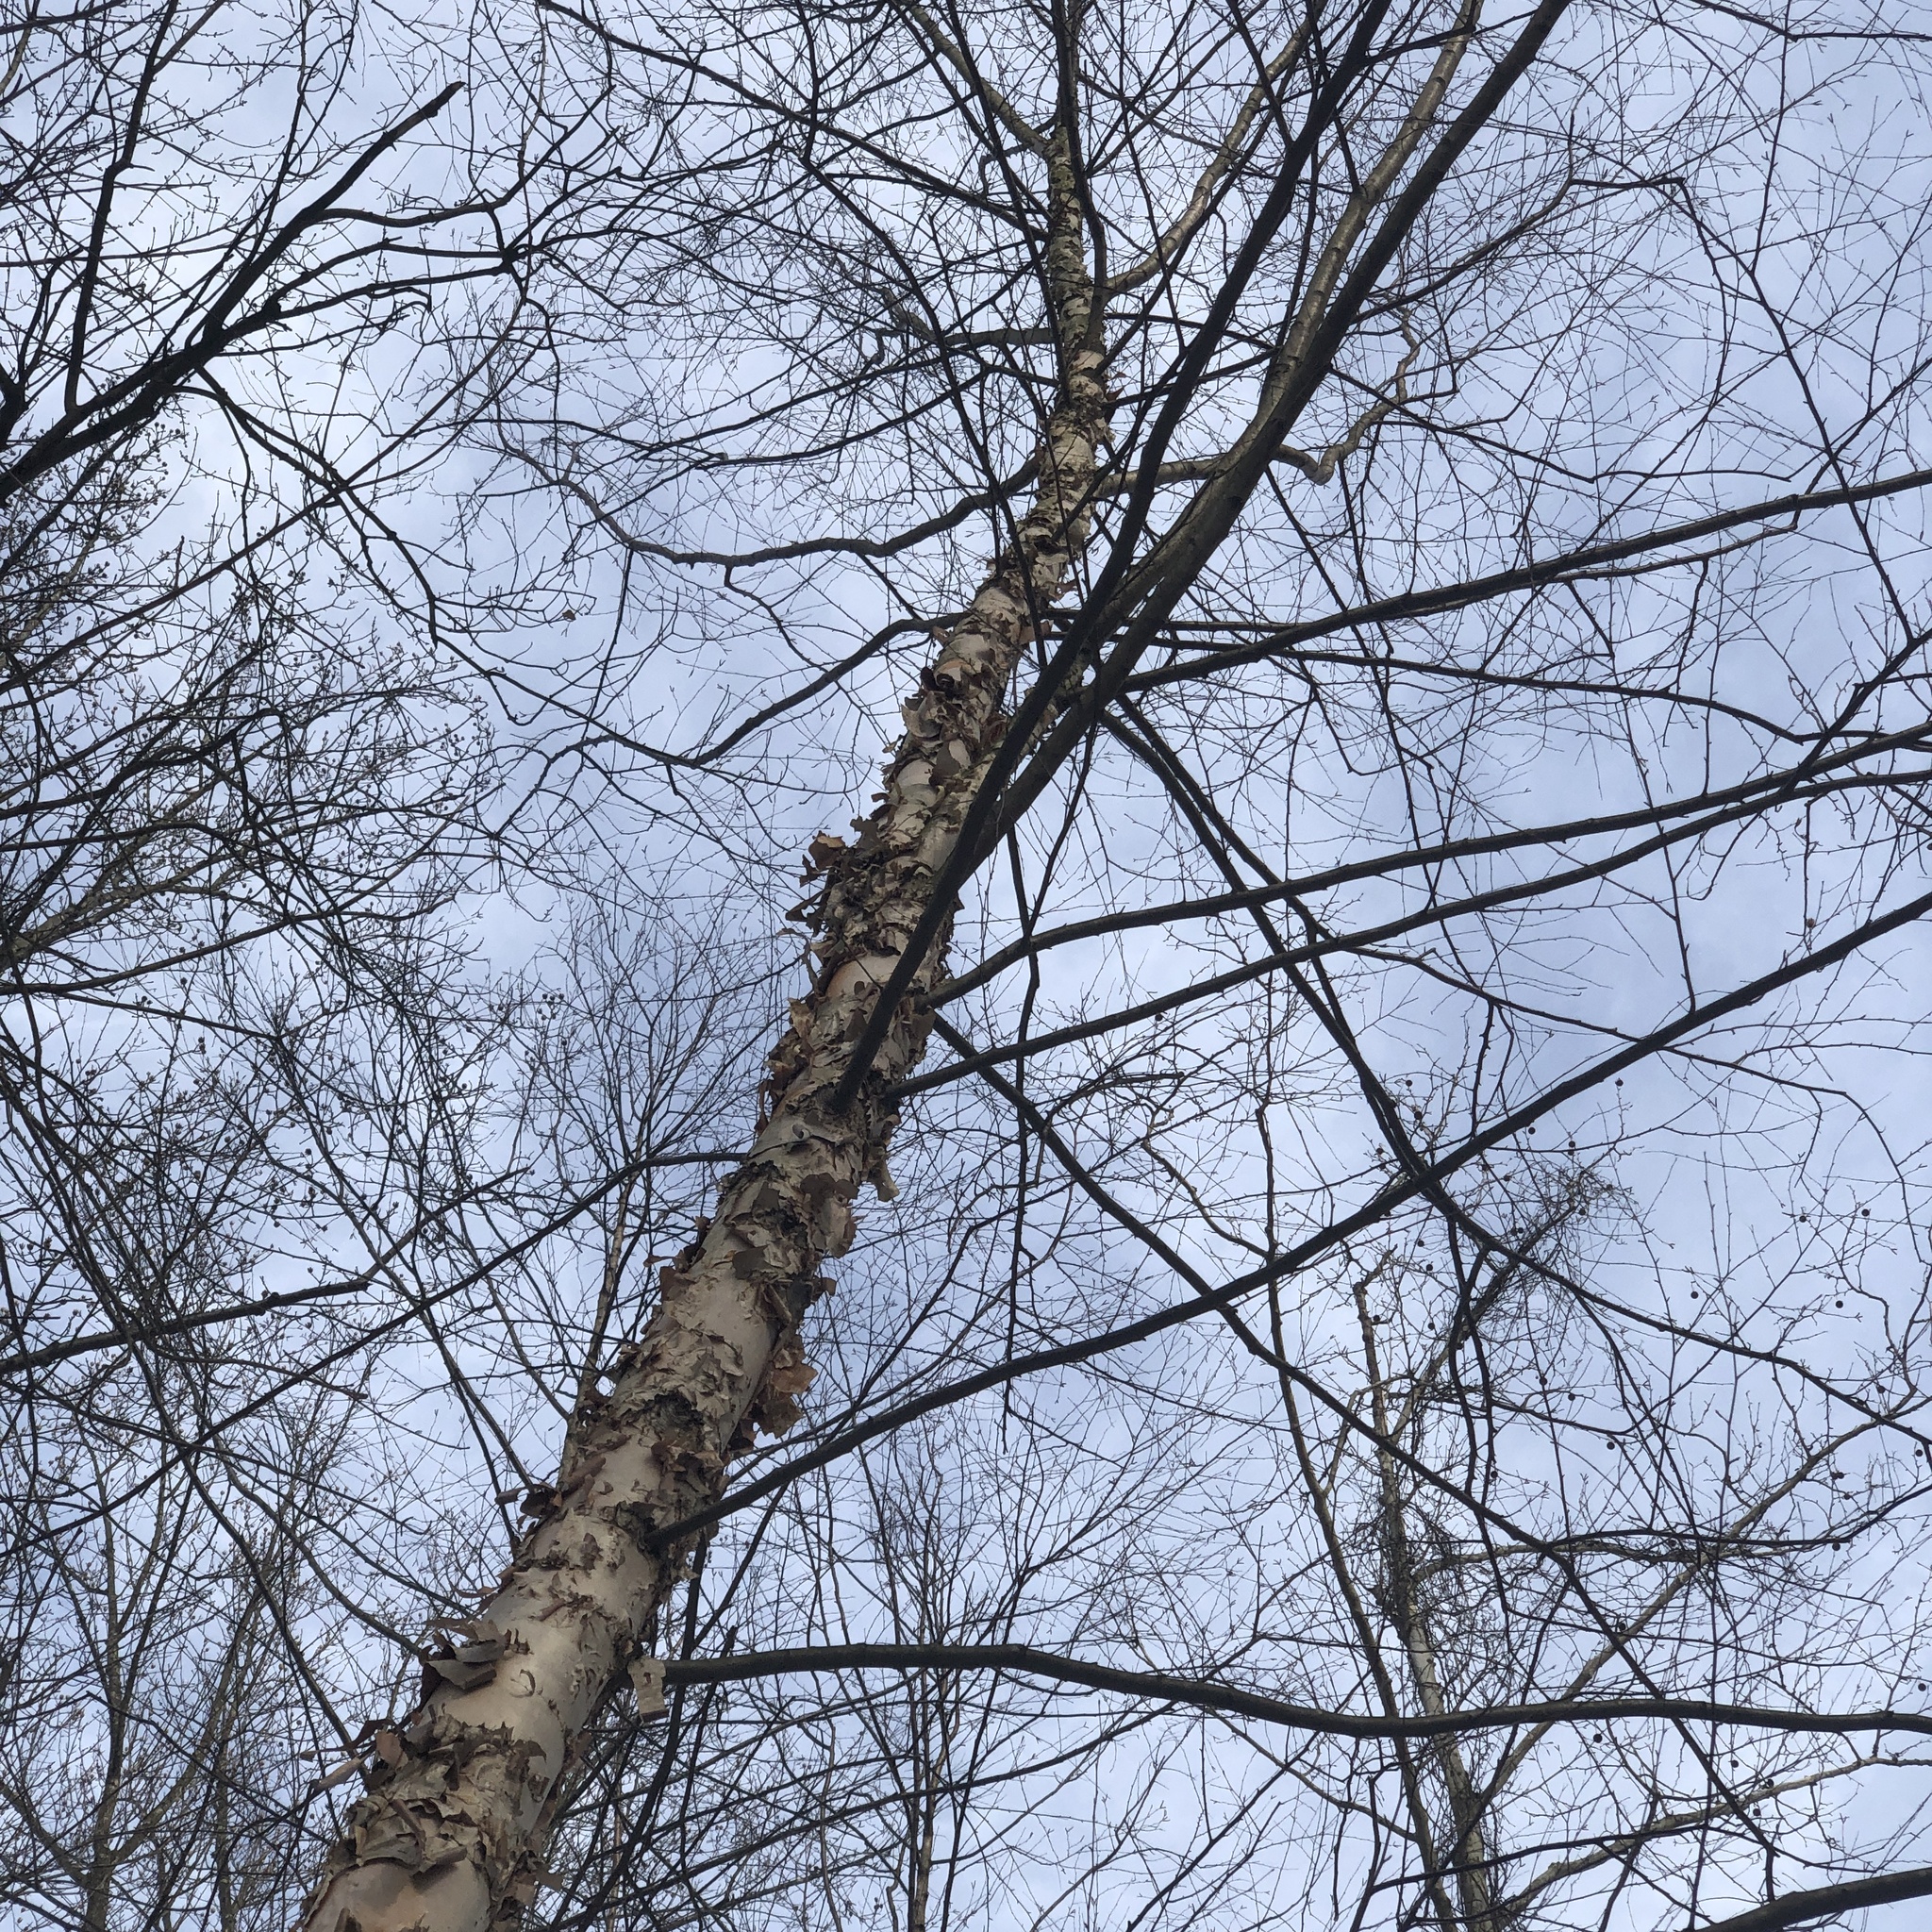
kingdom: Plantae
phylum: Tracheophyta
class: Magnoliopsida
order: Fagales
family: Betulaceae
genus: Betula
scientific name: Betula nigra
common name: Black birch
